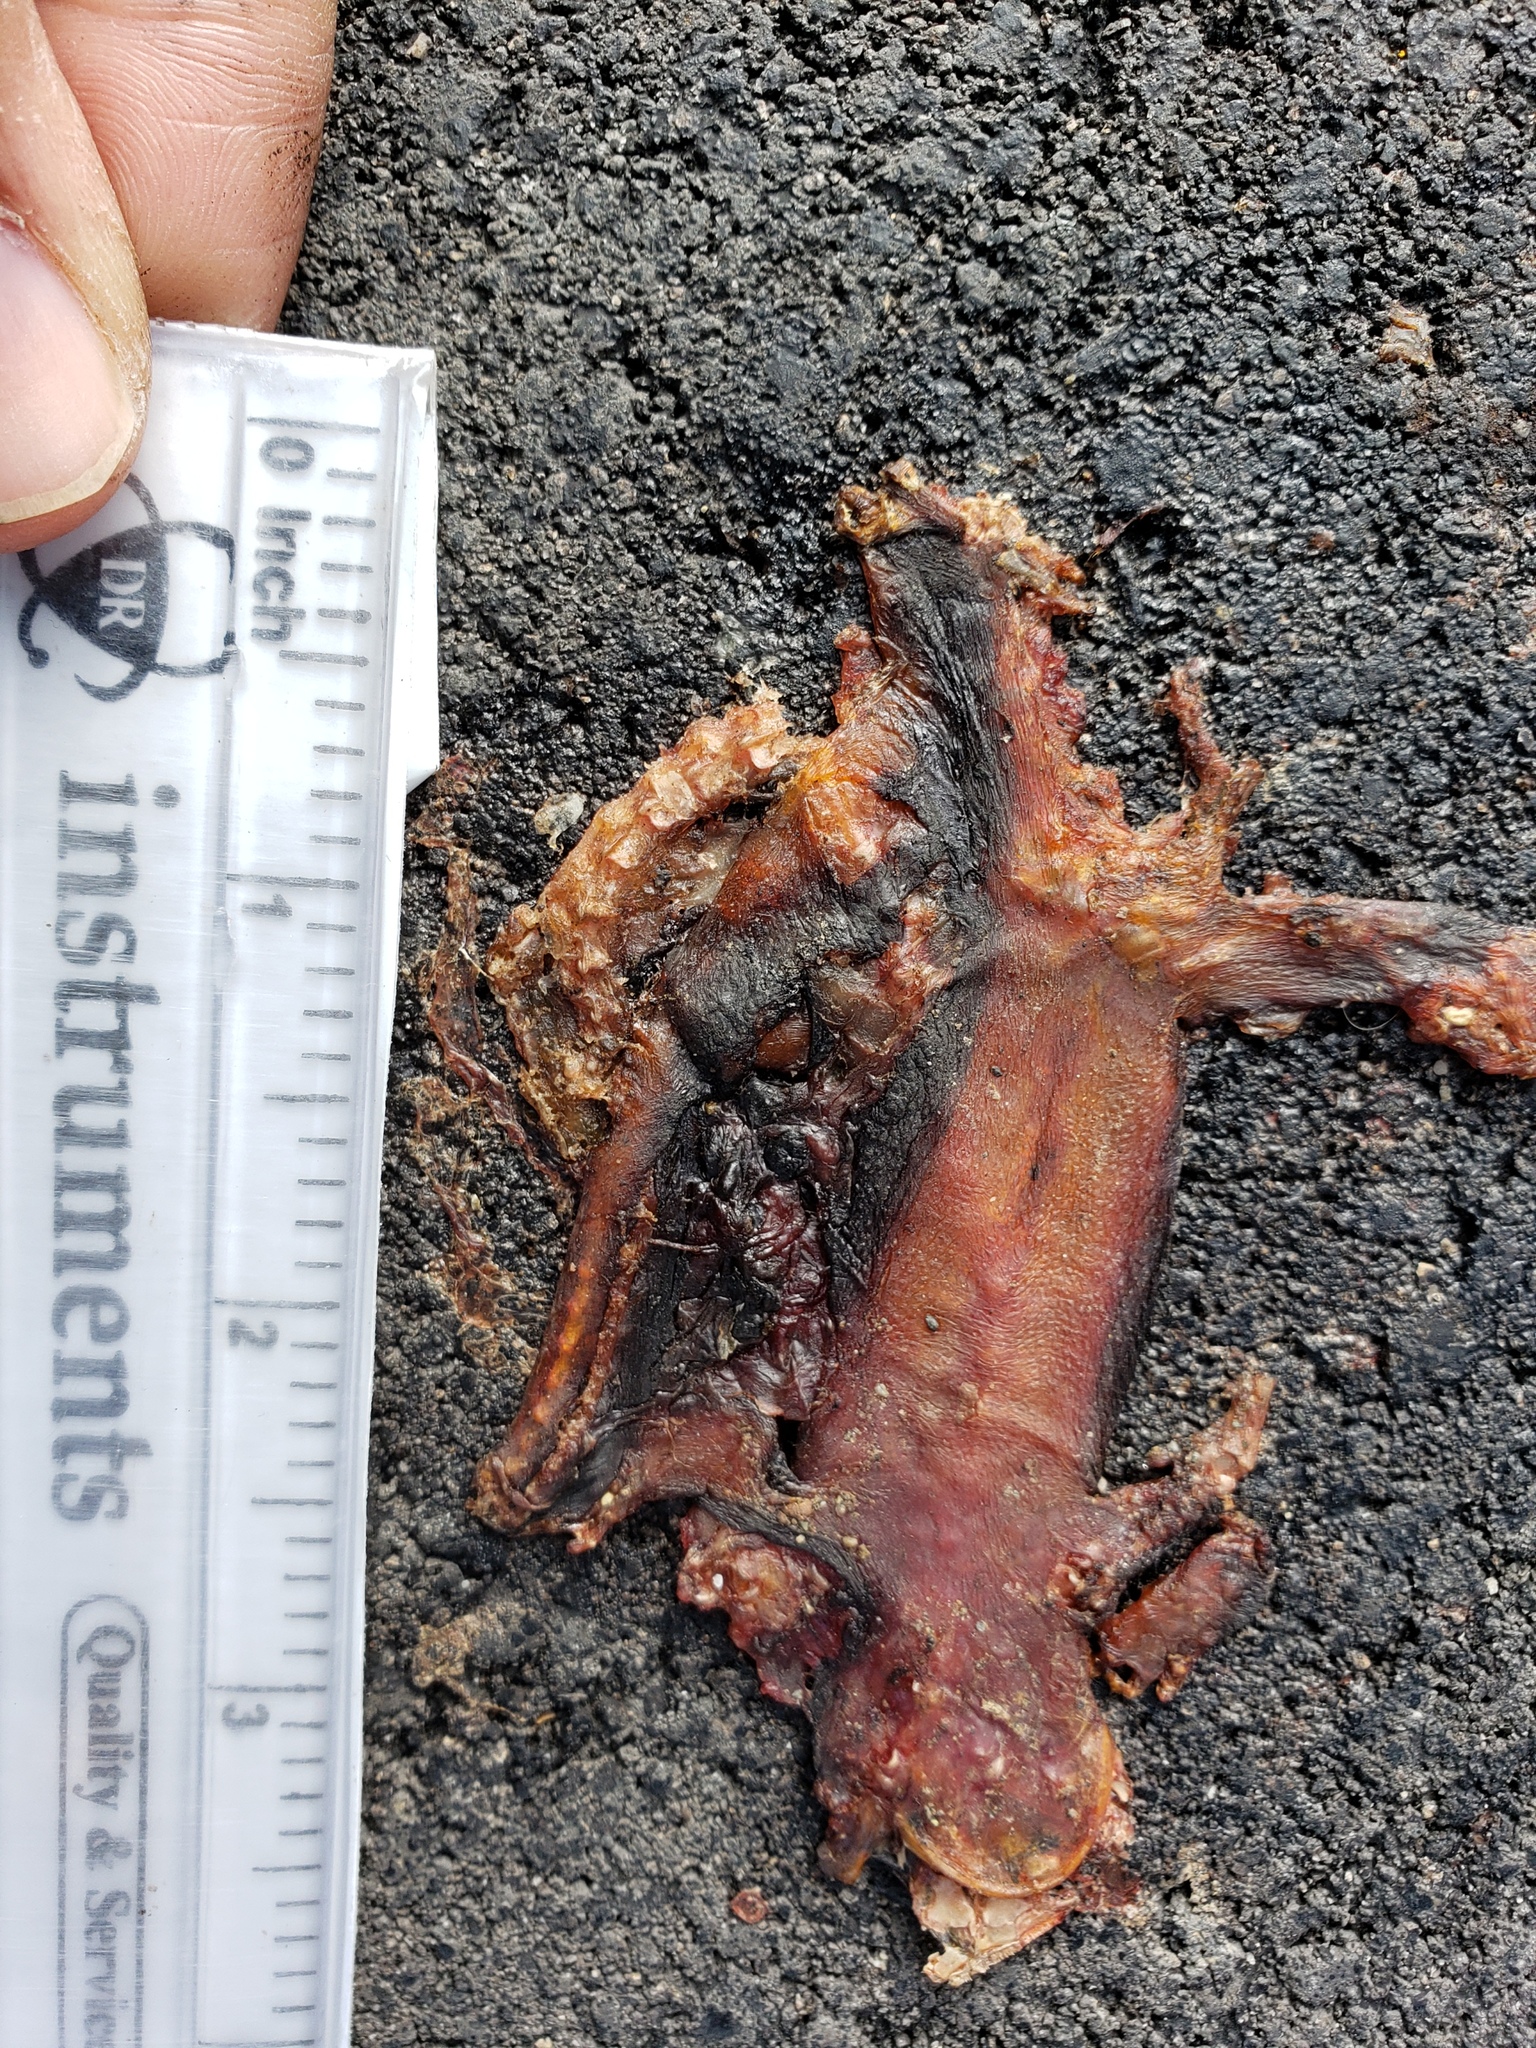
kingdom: Animalia
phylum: Chordata
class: Amphibia
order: Caudata
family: Salamandridae
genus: Taricha
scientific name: Taricha
